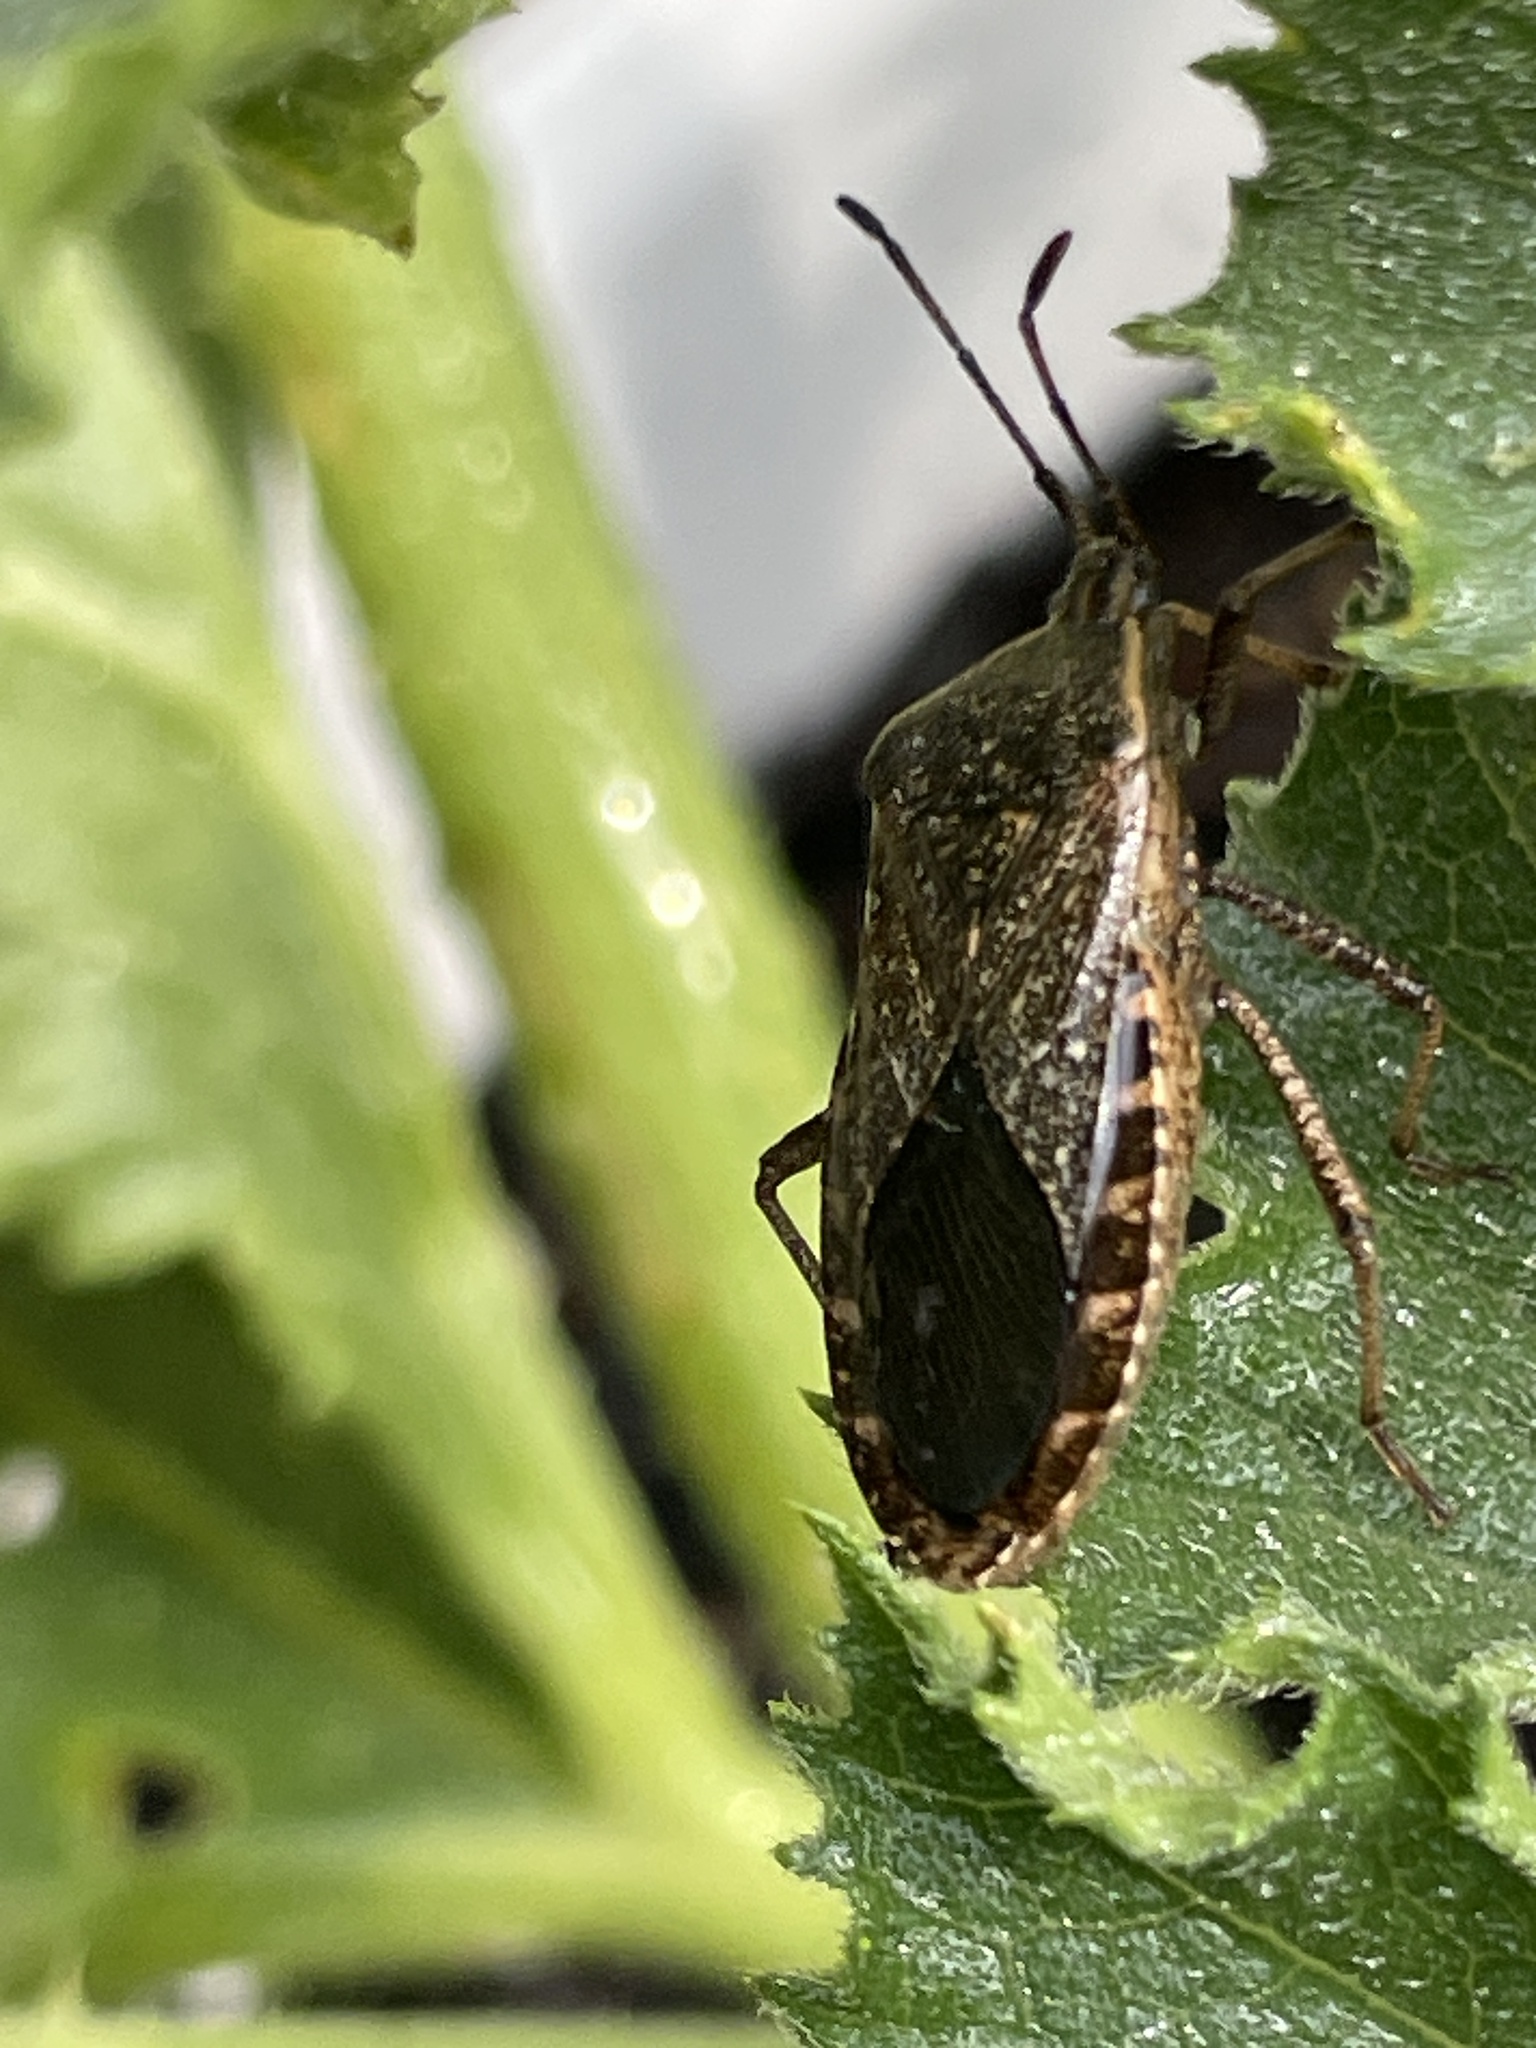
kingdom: Animalia
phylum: Arthropoda
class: Insecta
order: Hemiptera
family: Coreidae
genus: Anasa
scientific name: Anasa tristis
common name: Squash bug
